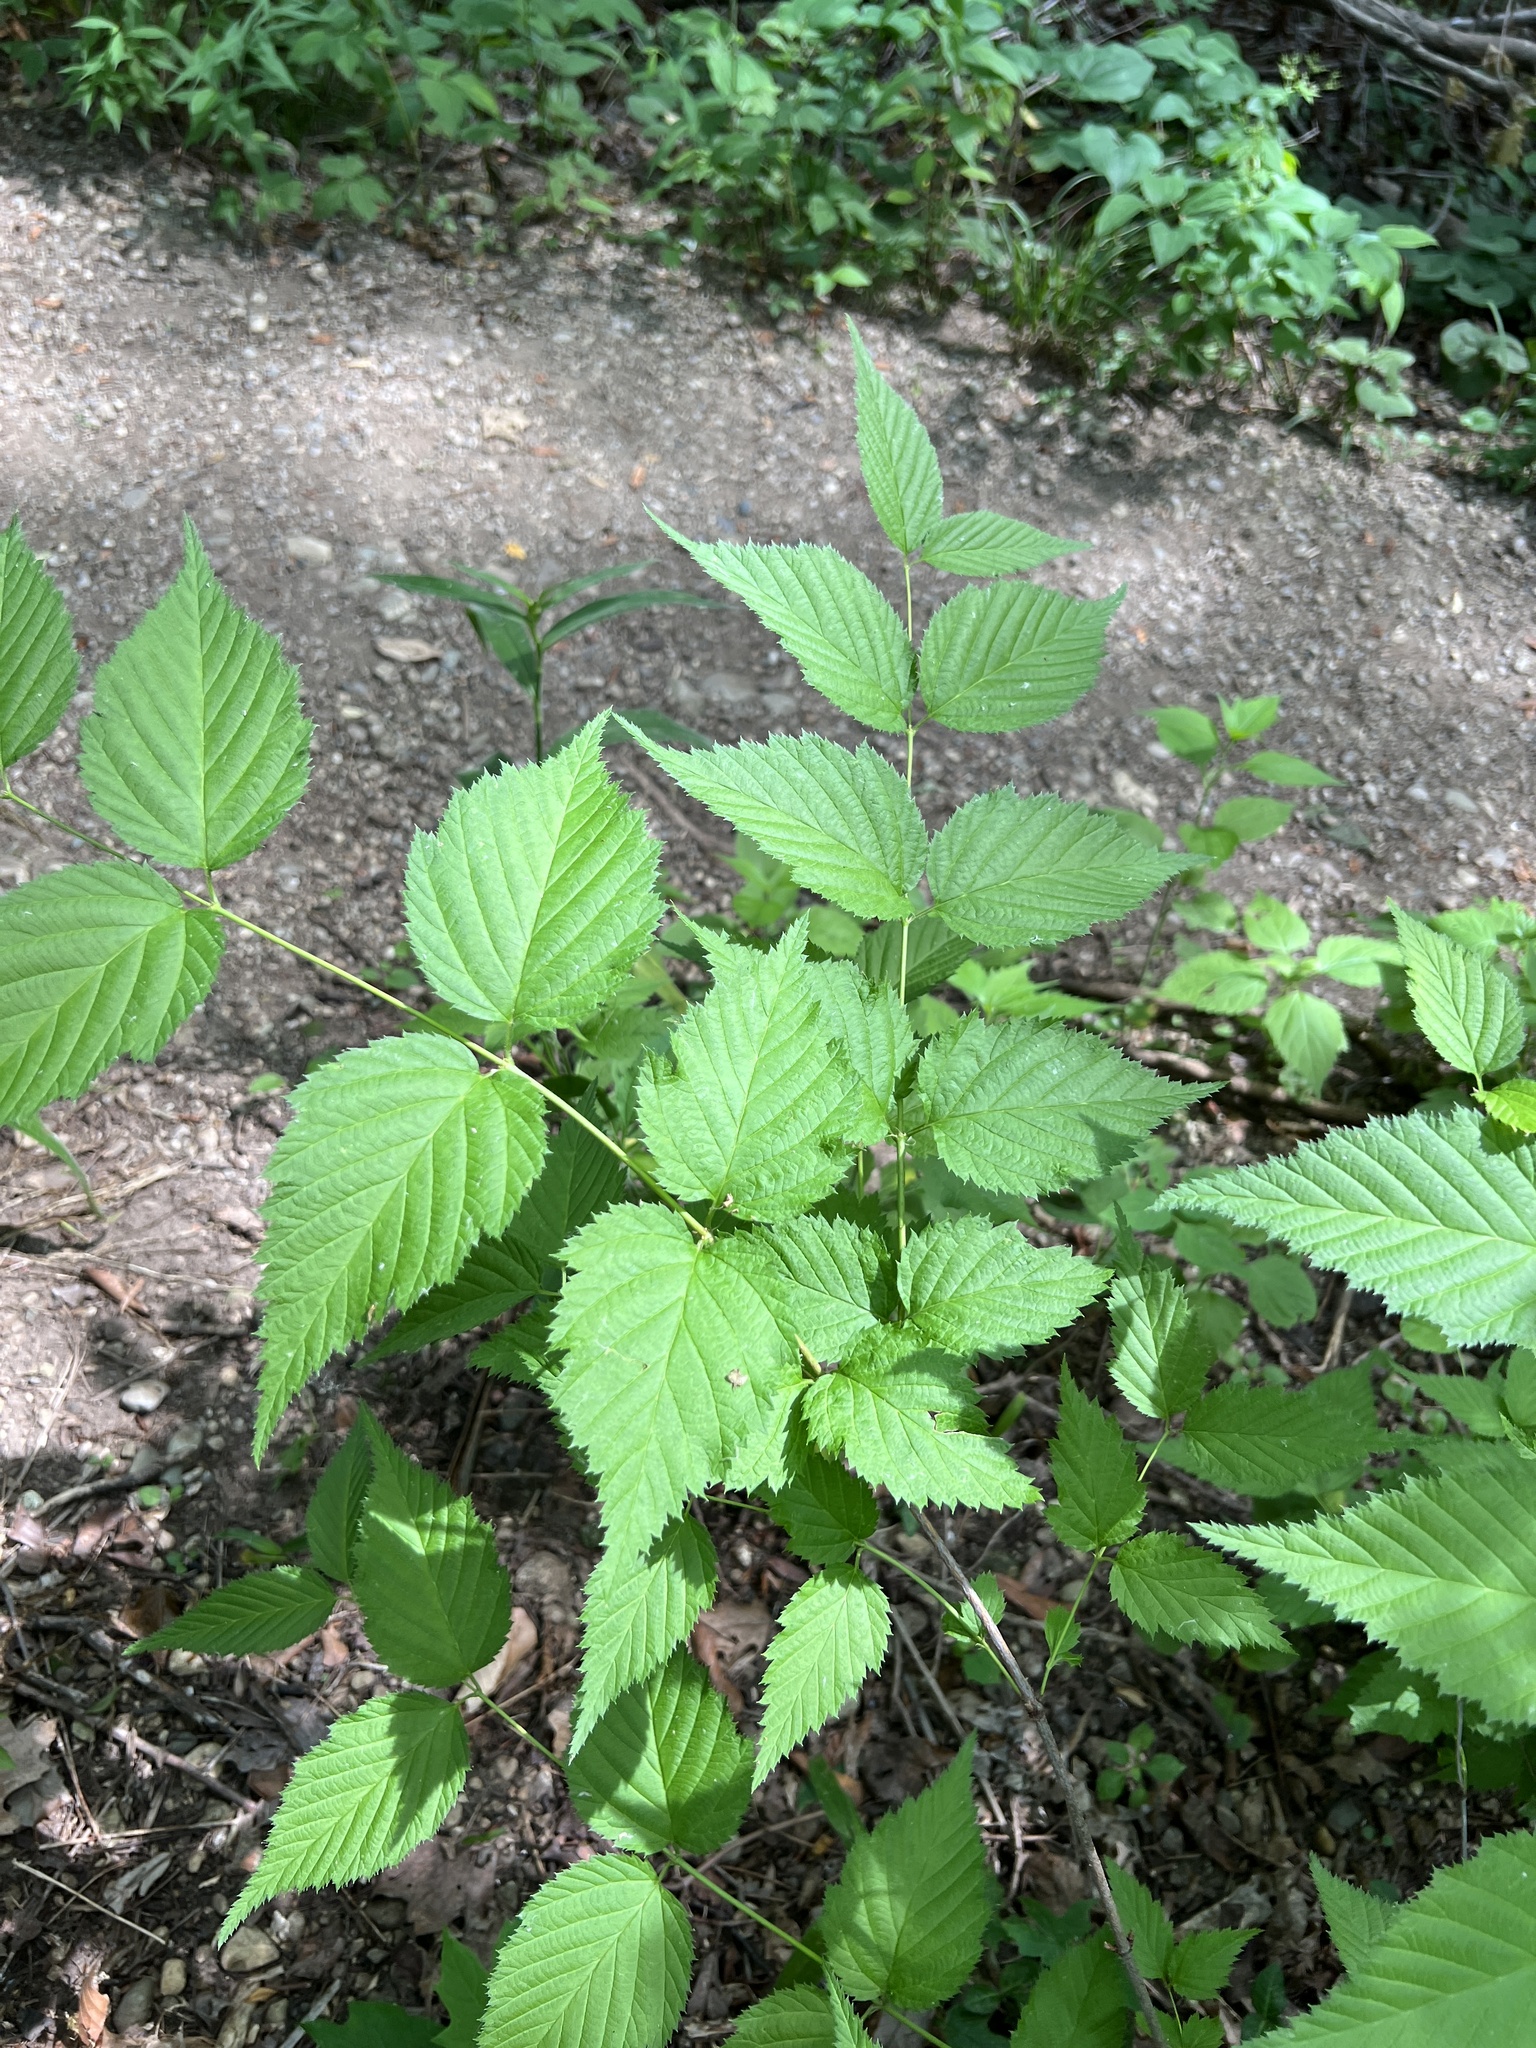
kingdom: Plantae
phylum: Tracheophyta
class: Magnoliopsida
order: Rosales
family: Rosaceae
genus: Rhodotypos
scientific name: Rhodotypos scandens
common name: Jetbead
